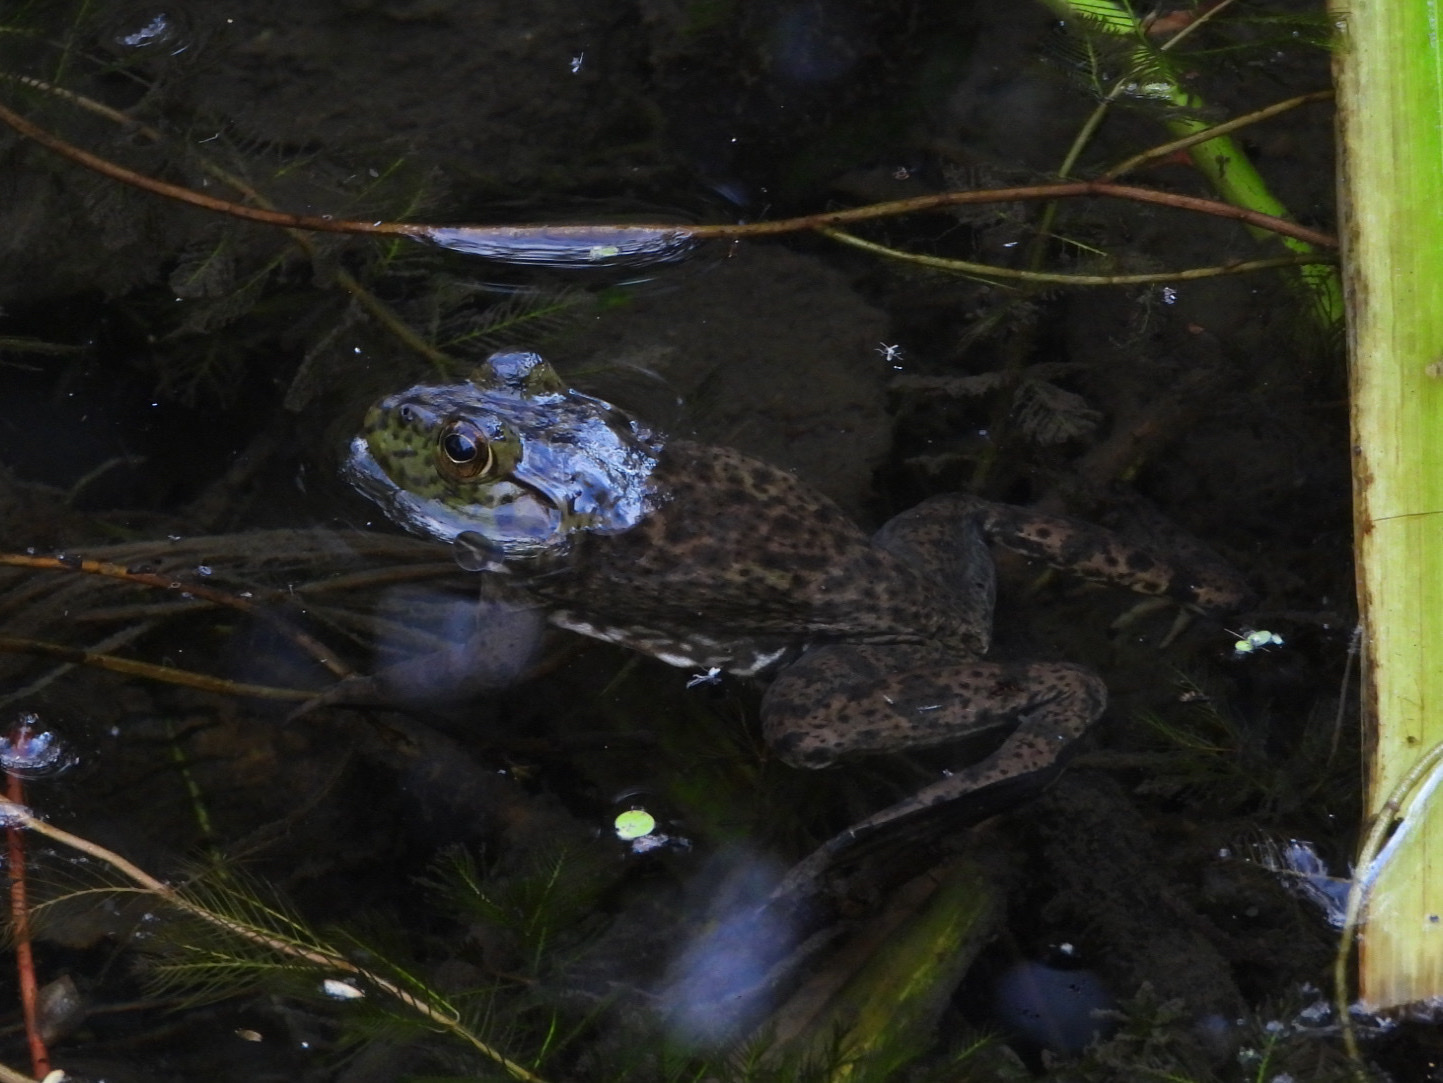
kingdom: Animalia
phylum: Chordata
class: Amphibia
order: Anura
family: Ranidae
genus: Lithobates
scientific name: Lithobates catesbeianus
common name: American bullfrog
